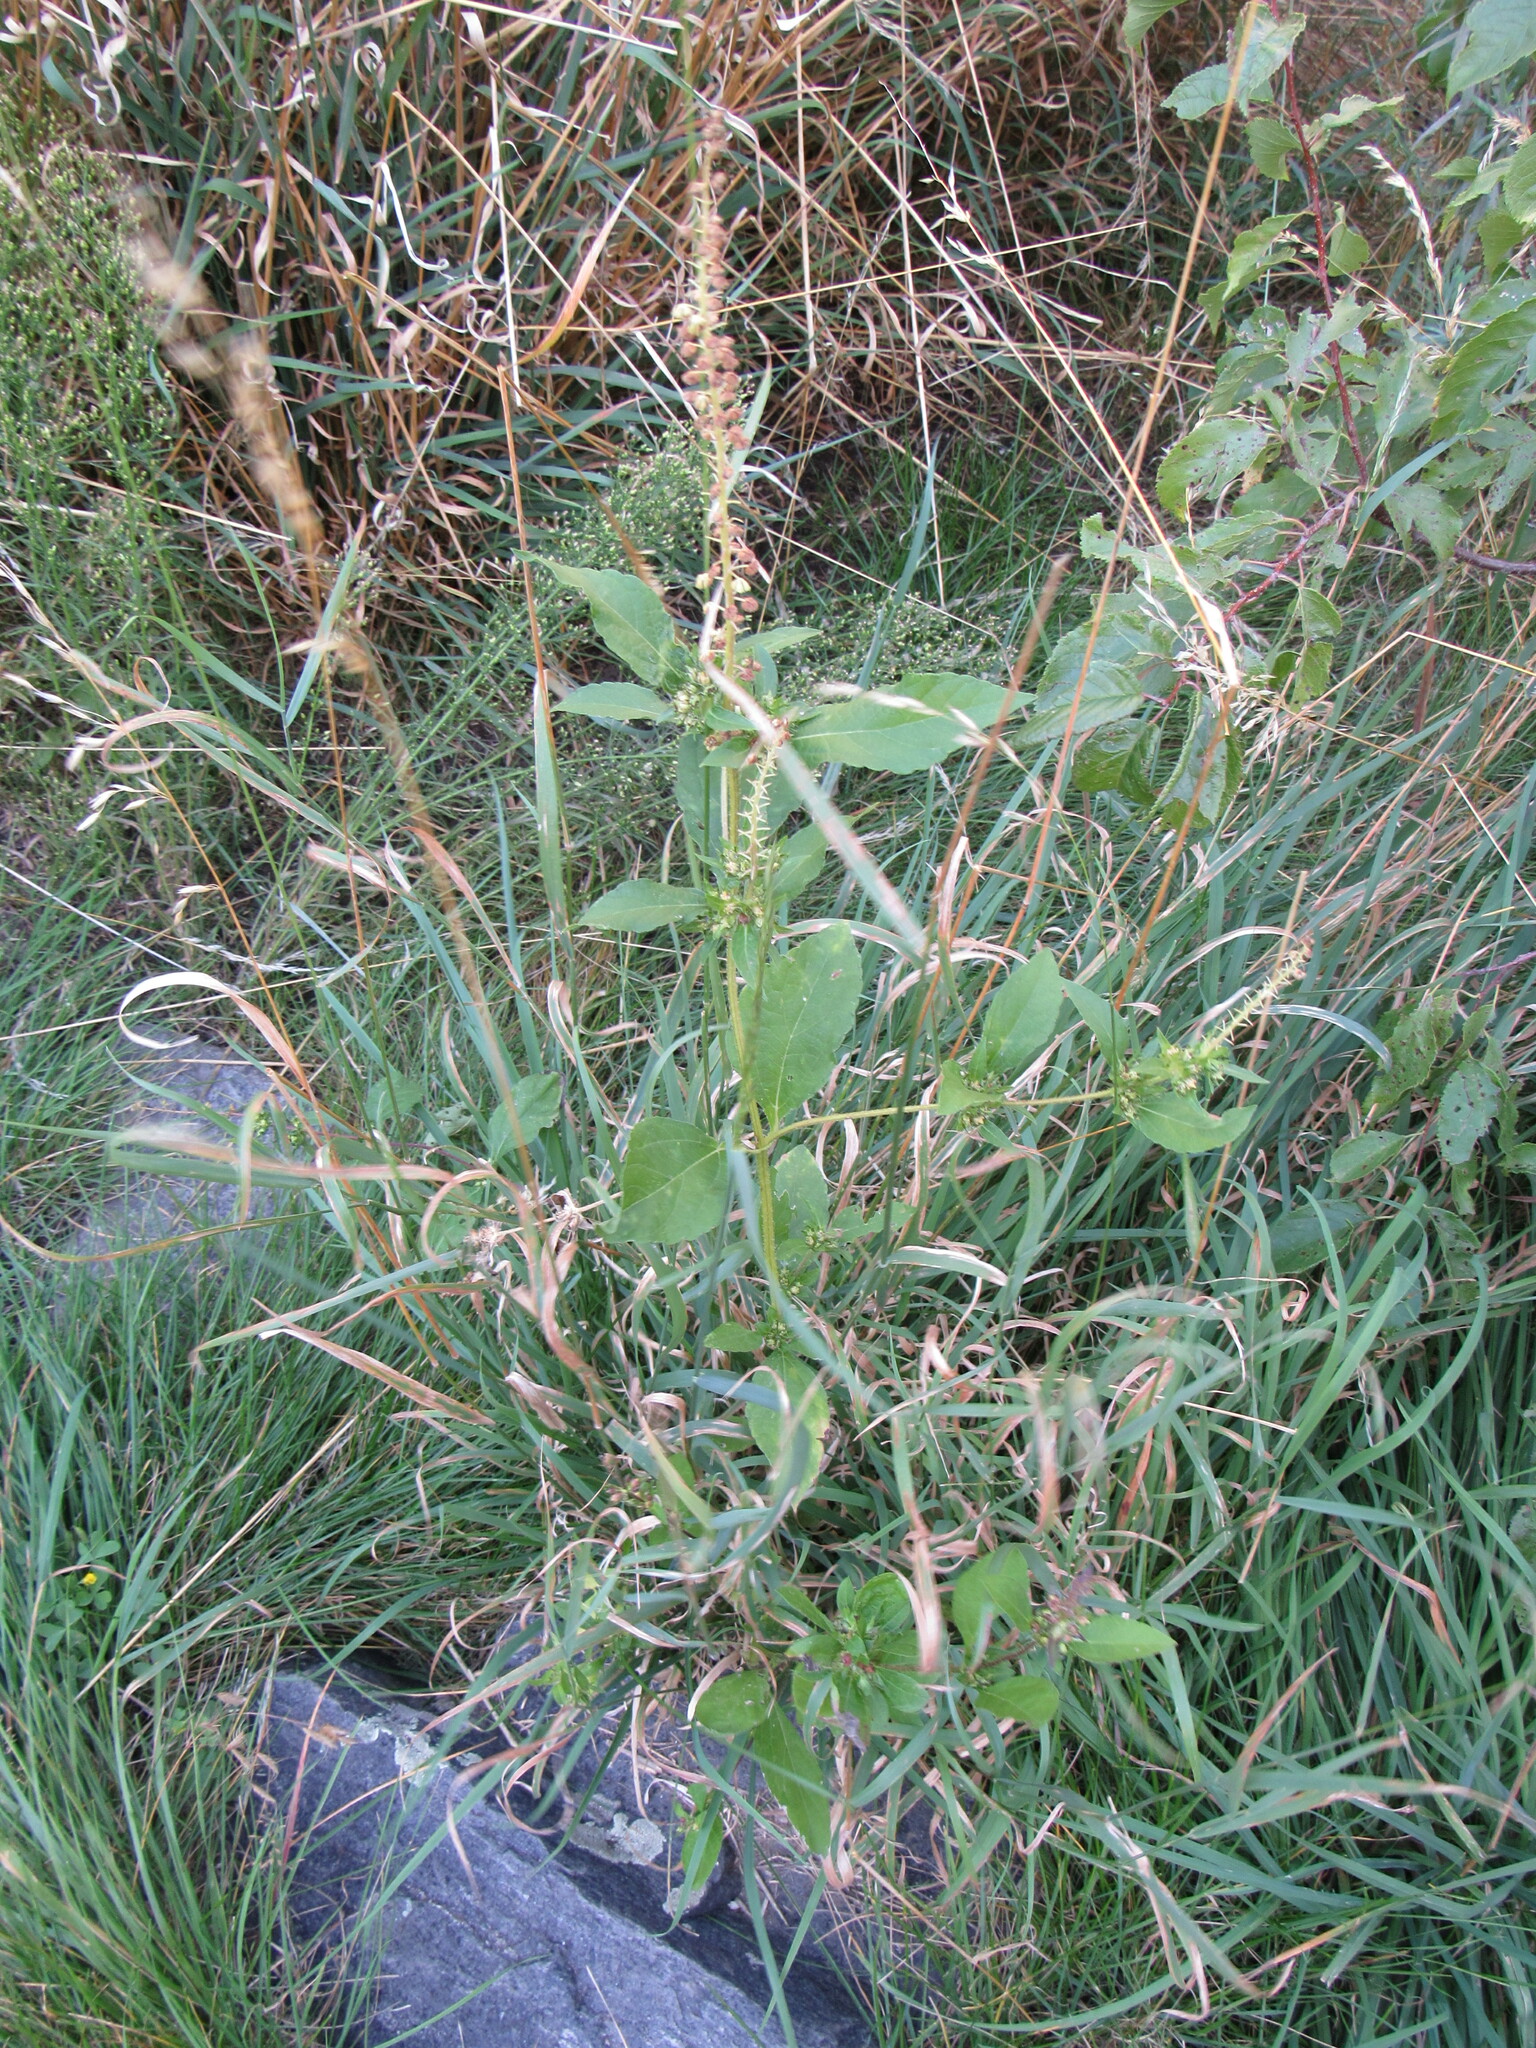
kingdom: Plantae
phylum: Tracheophyta
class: Magnoliopsida
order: Asterales
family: Asteraceae
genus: Ambrosia
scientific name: Ambrosia trifida
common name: Giant ragweed
